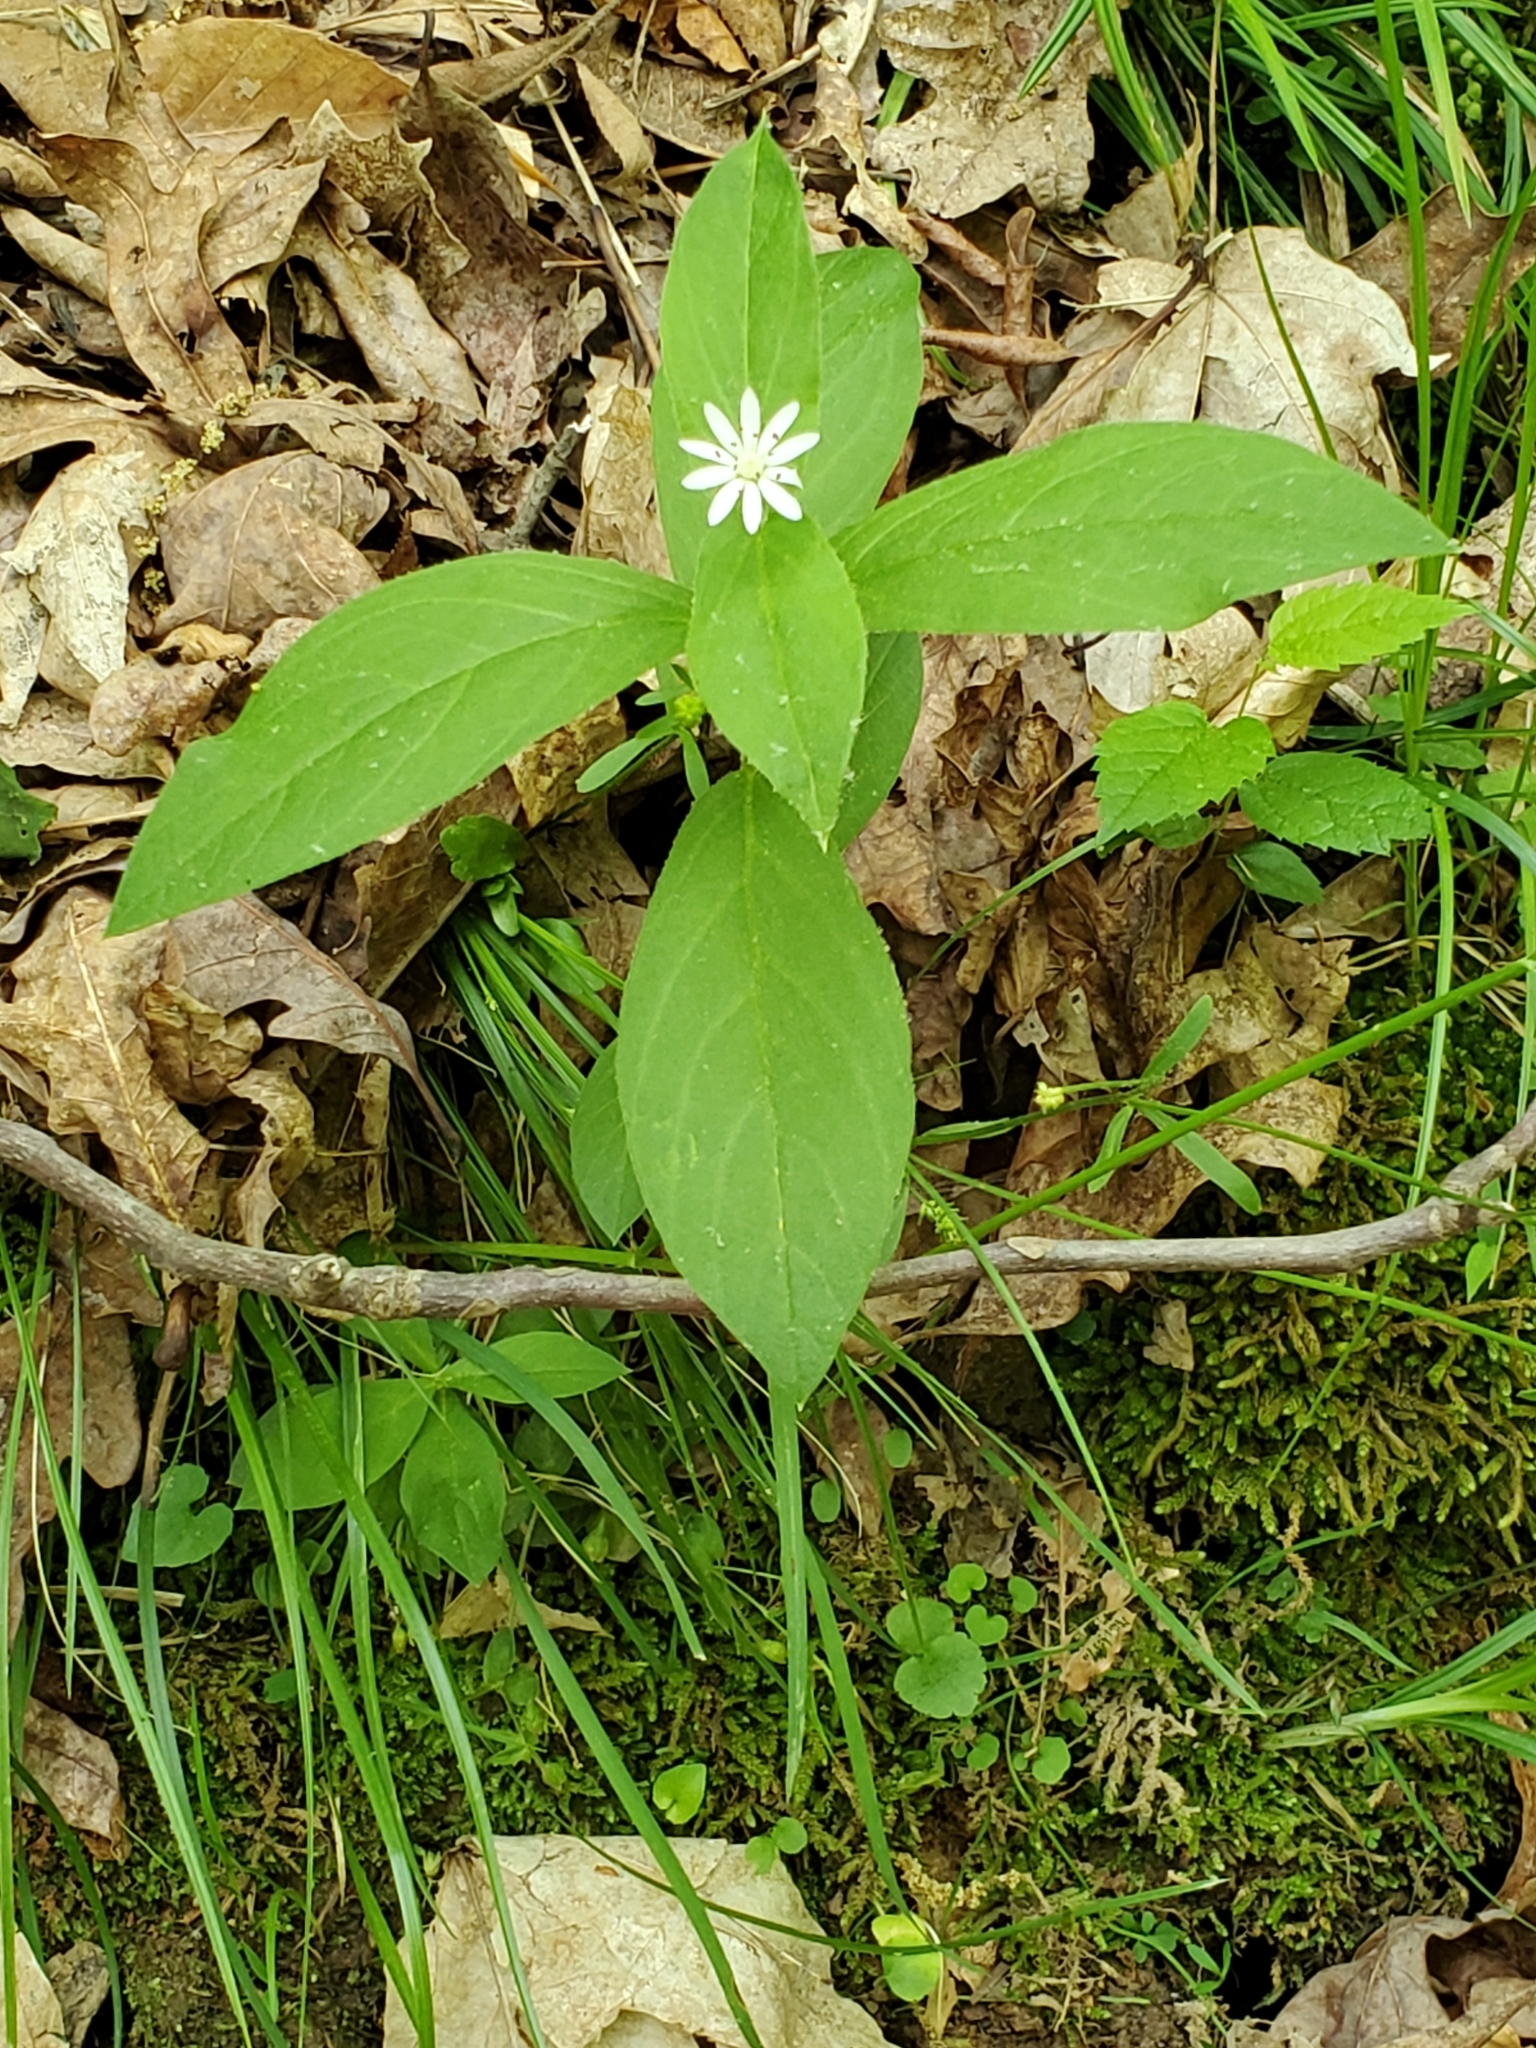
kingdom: Plantae
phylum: Tracheophyta
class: Magnoliopsida
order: Caryophyllales
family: Caryophyllaceae
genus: Stellaria
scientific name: Stellaria pubera
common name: Star chickweed
